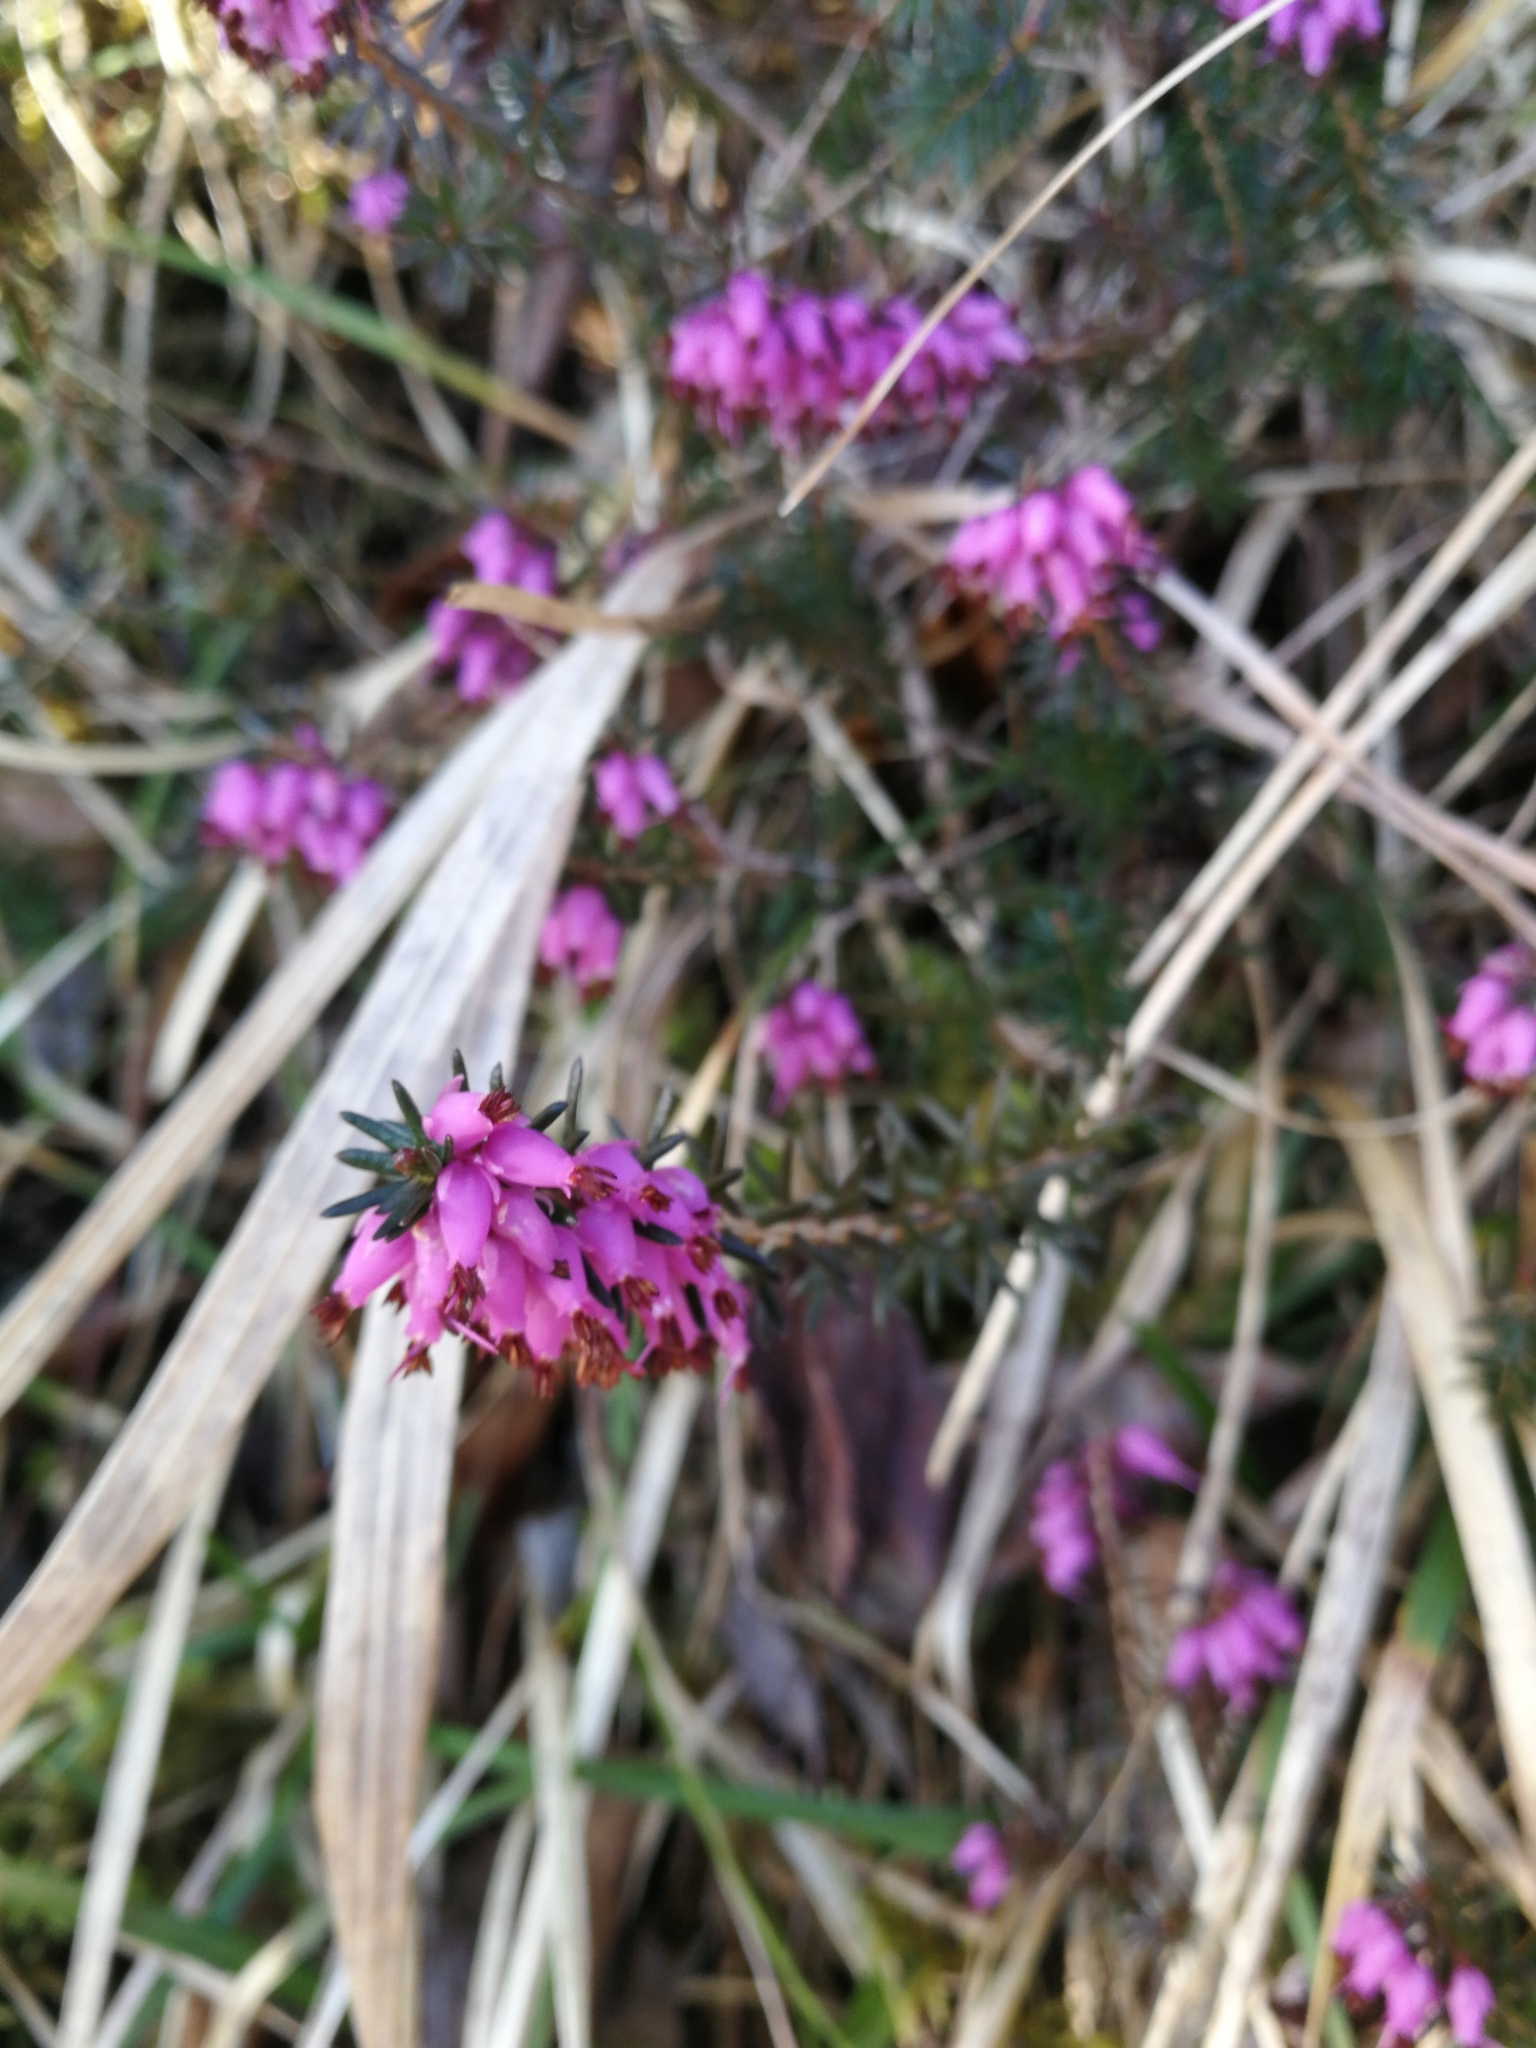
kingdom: Plantae
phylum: Tracheophyta
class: Magnoliopsida
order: Ericales
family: Ericaceae
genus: Erica
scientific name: Erica carnea
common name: Winter heath
